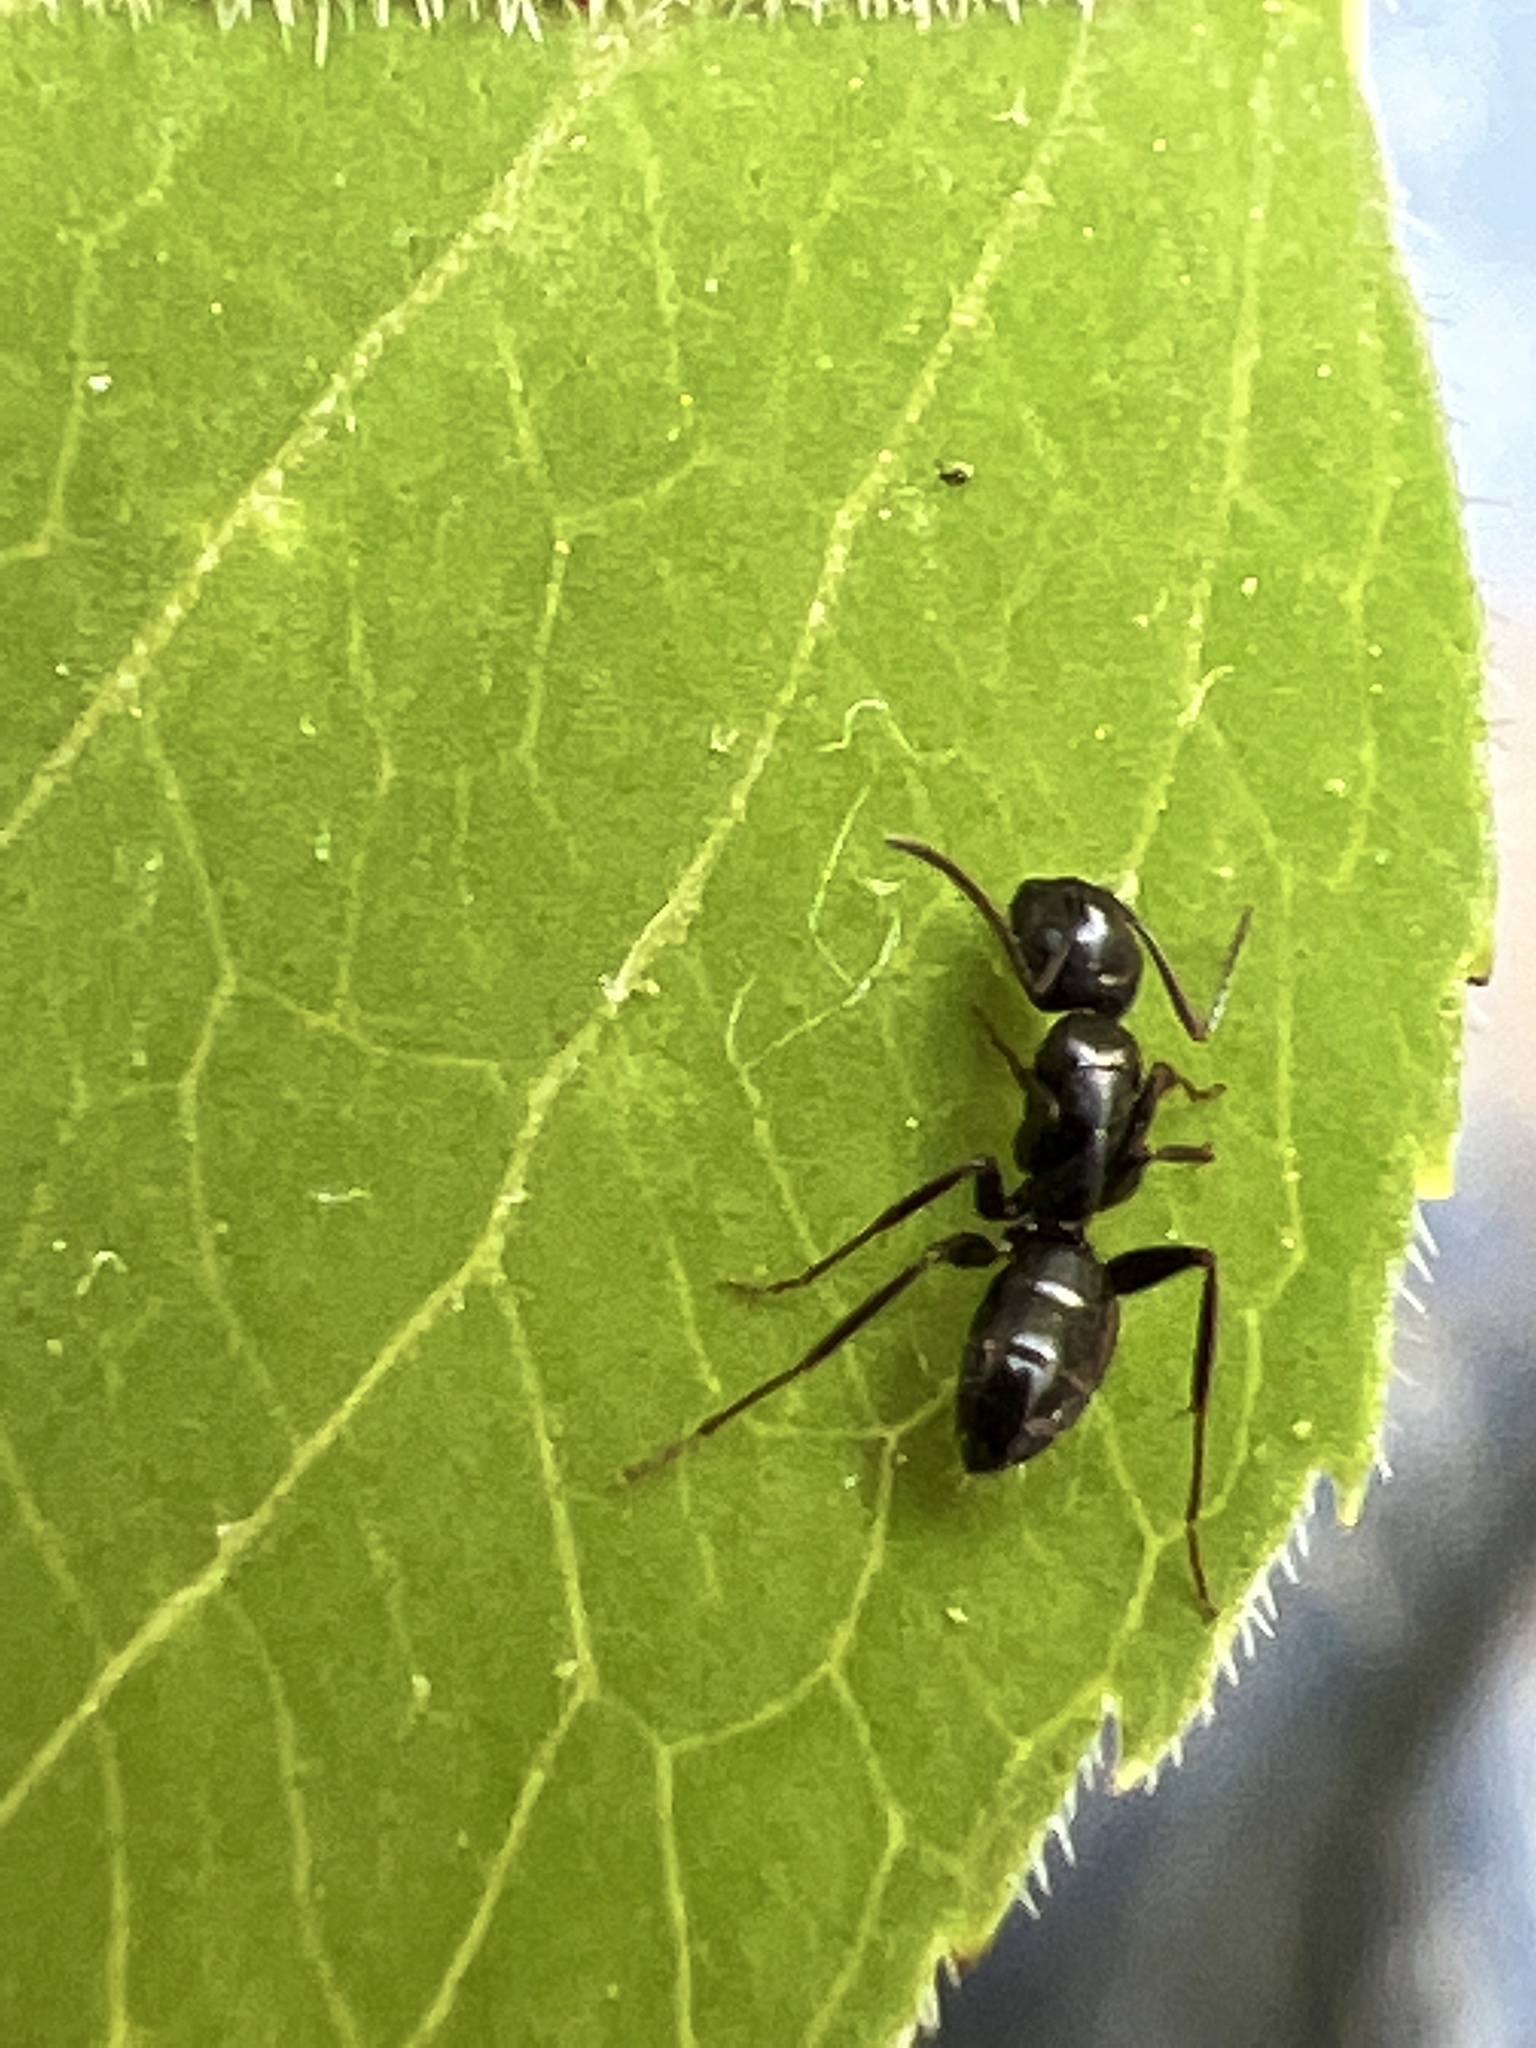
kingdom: Animalia
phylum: Arthropoda
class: Insecta
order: Hymenoptera
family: Formicidae
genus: Camponotus
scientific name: Camponotus nearcticus
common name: Smaller carpenter ant
